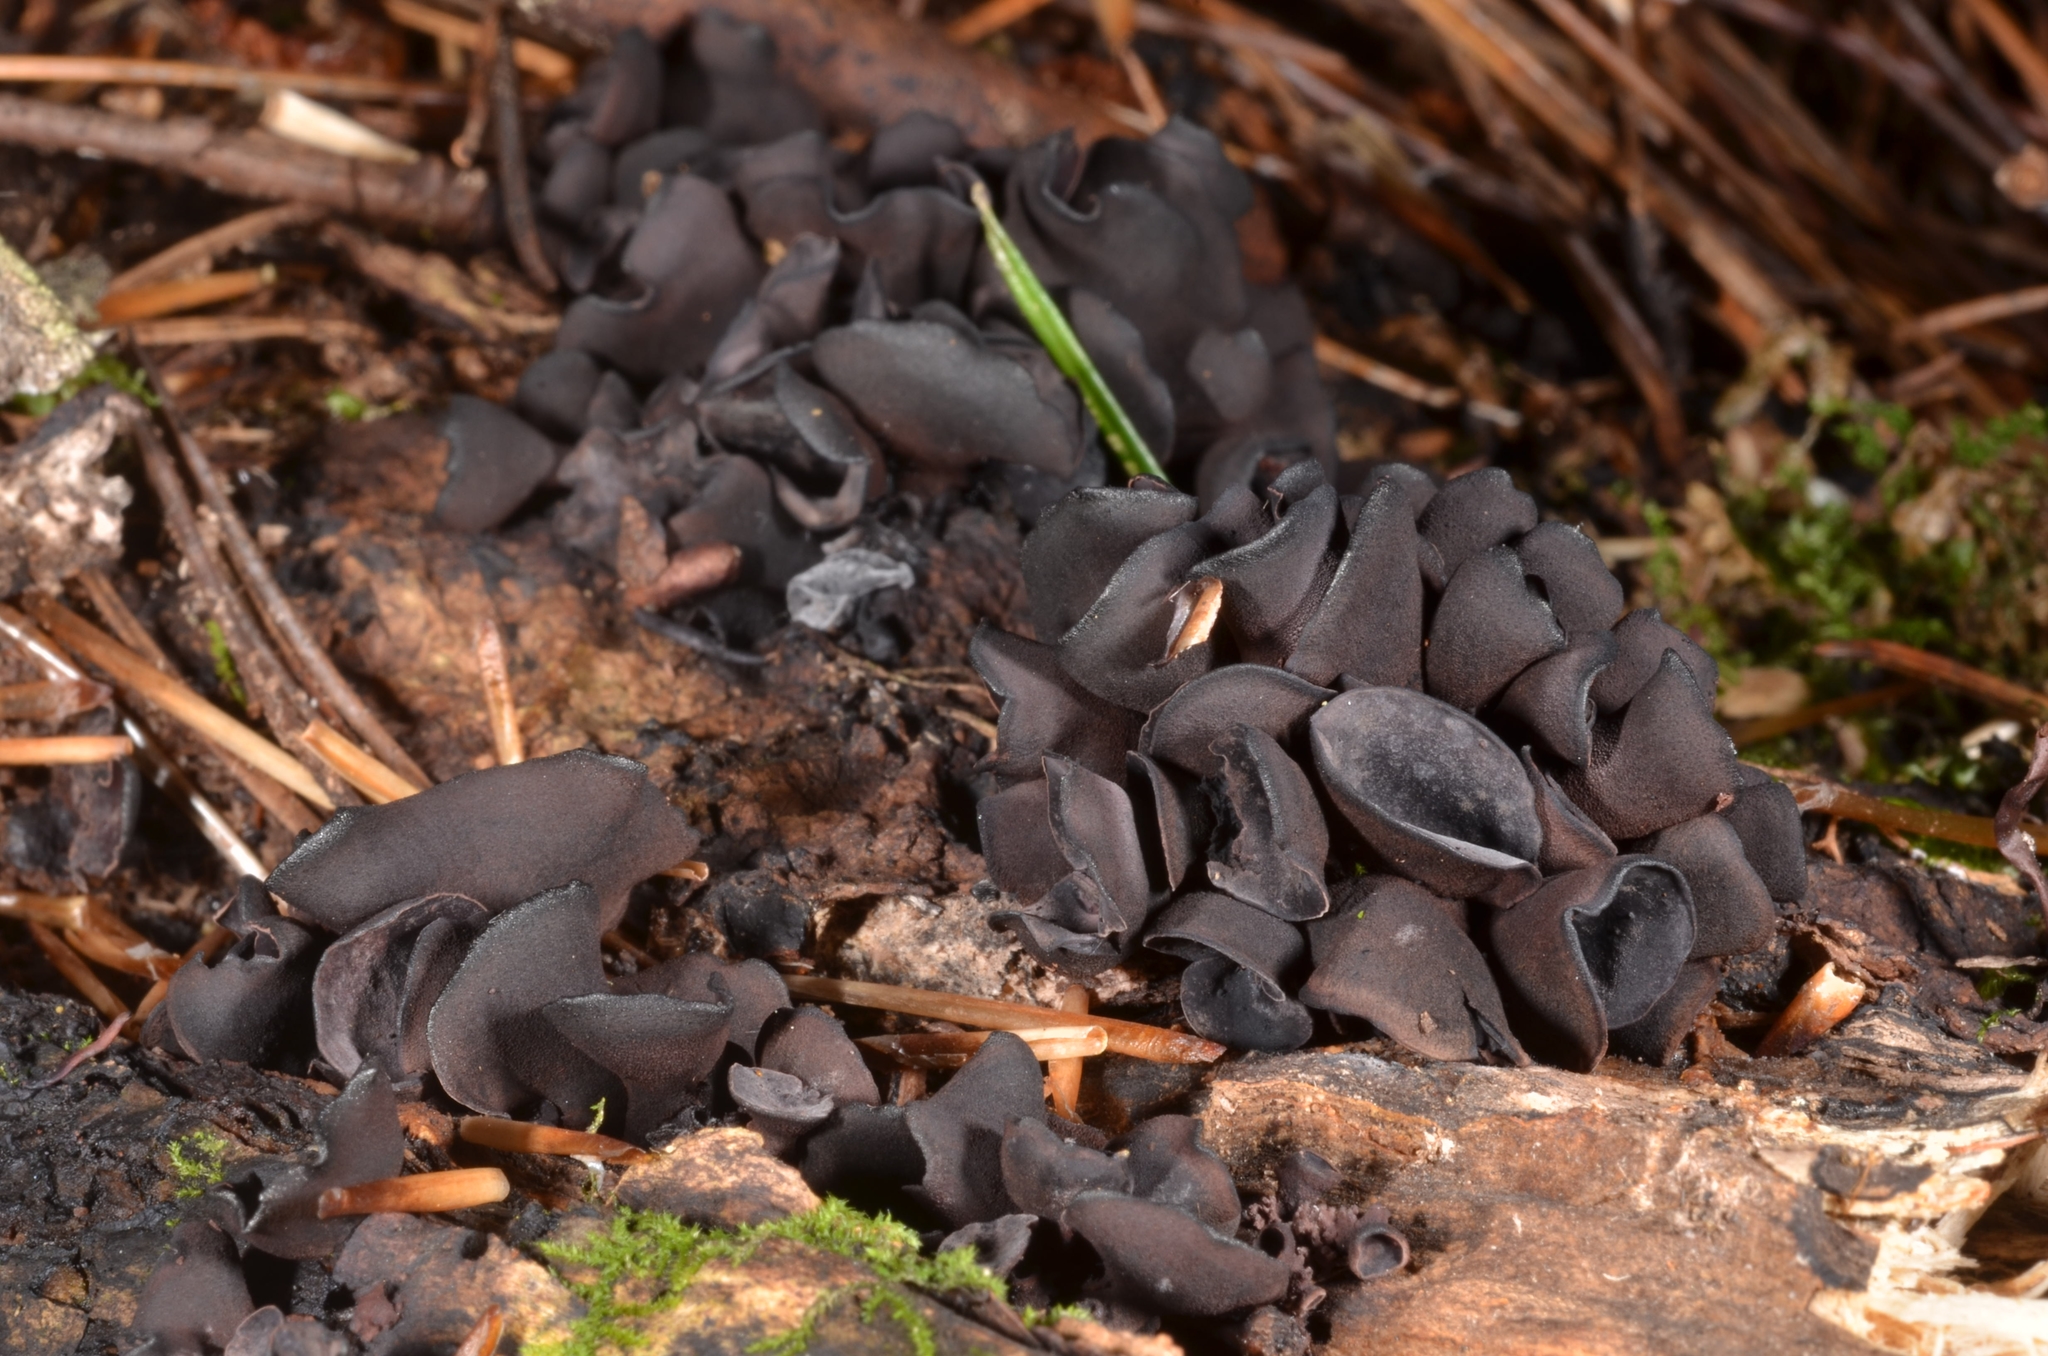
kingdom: Fungi
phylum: Ascomycota
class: Leotiomycetes
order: Helotiales
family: Cordieritidaceae
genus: Ionomidotis
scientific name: Ionomidotis sprucei
